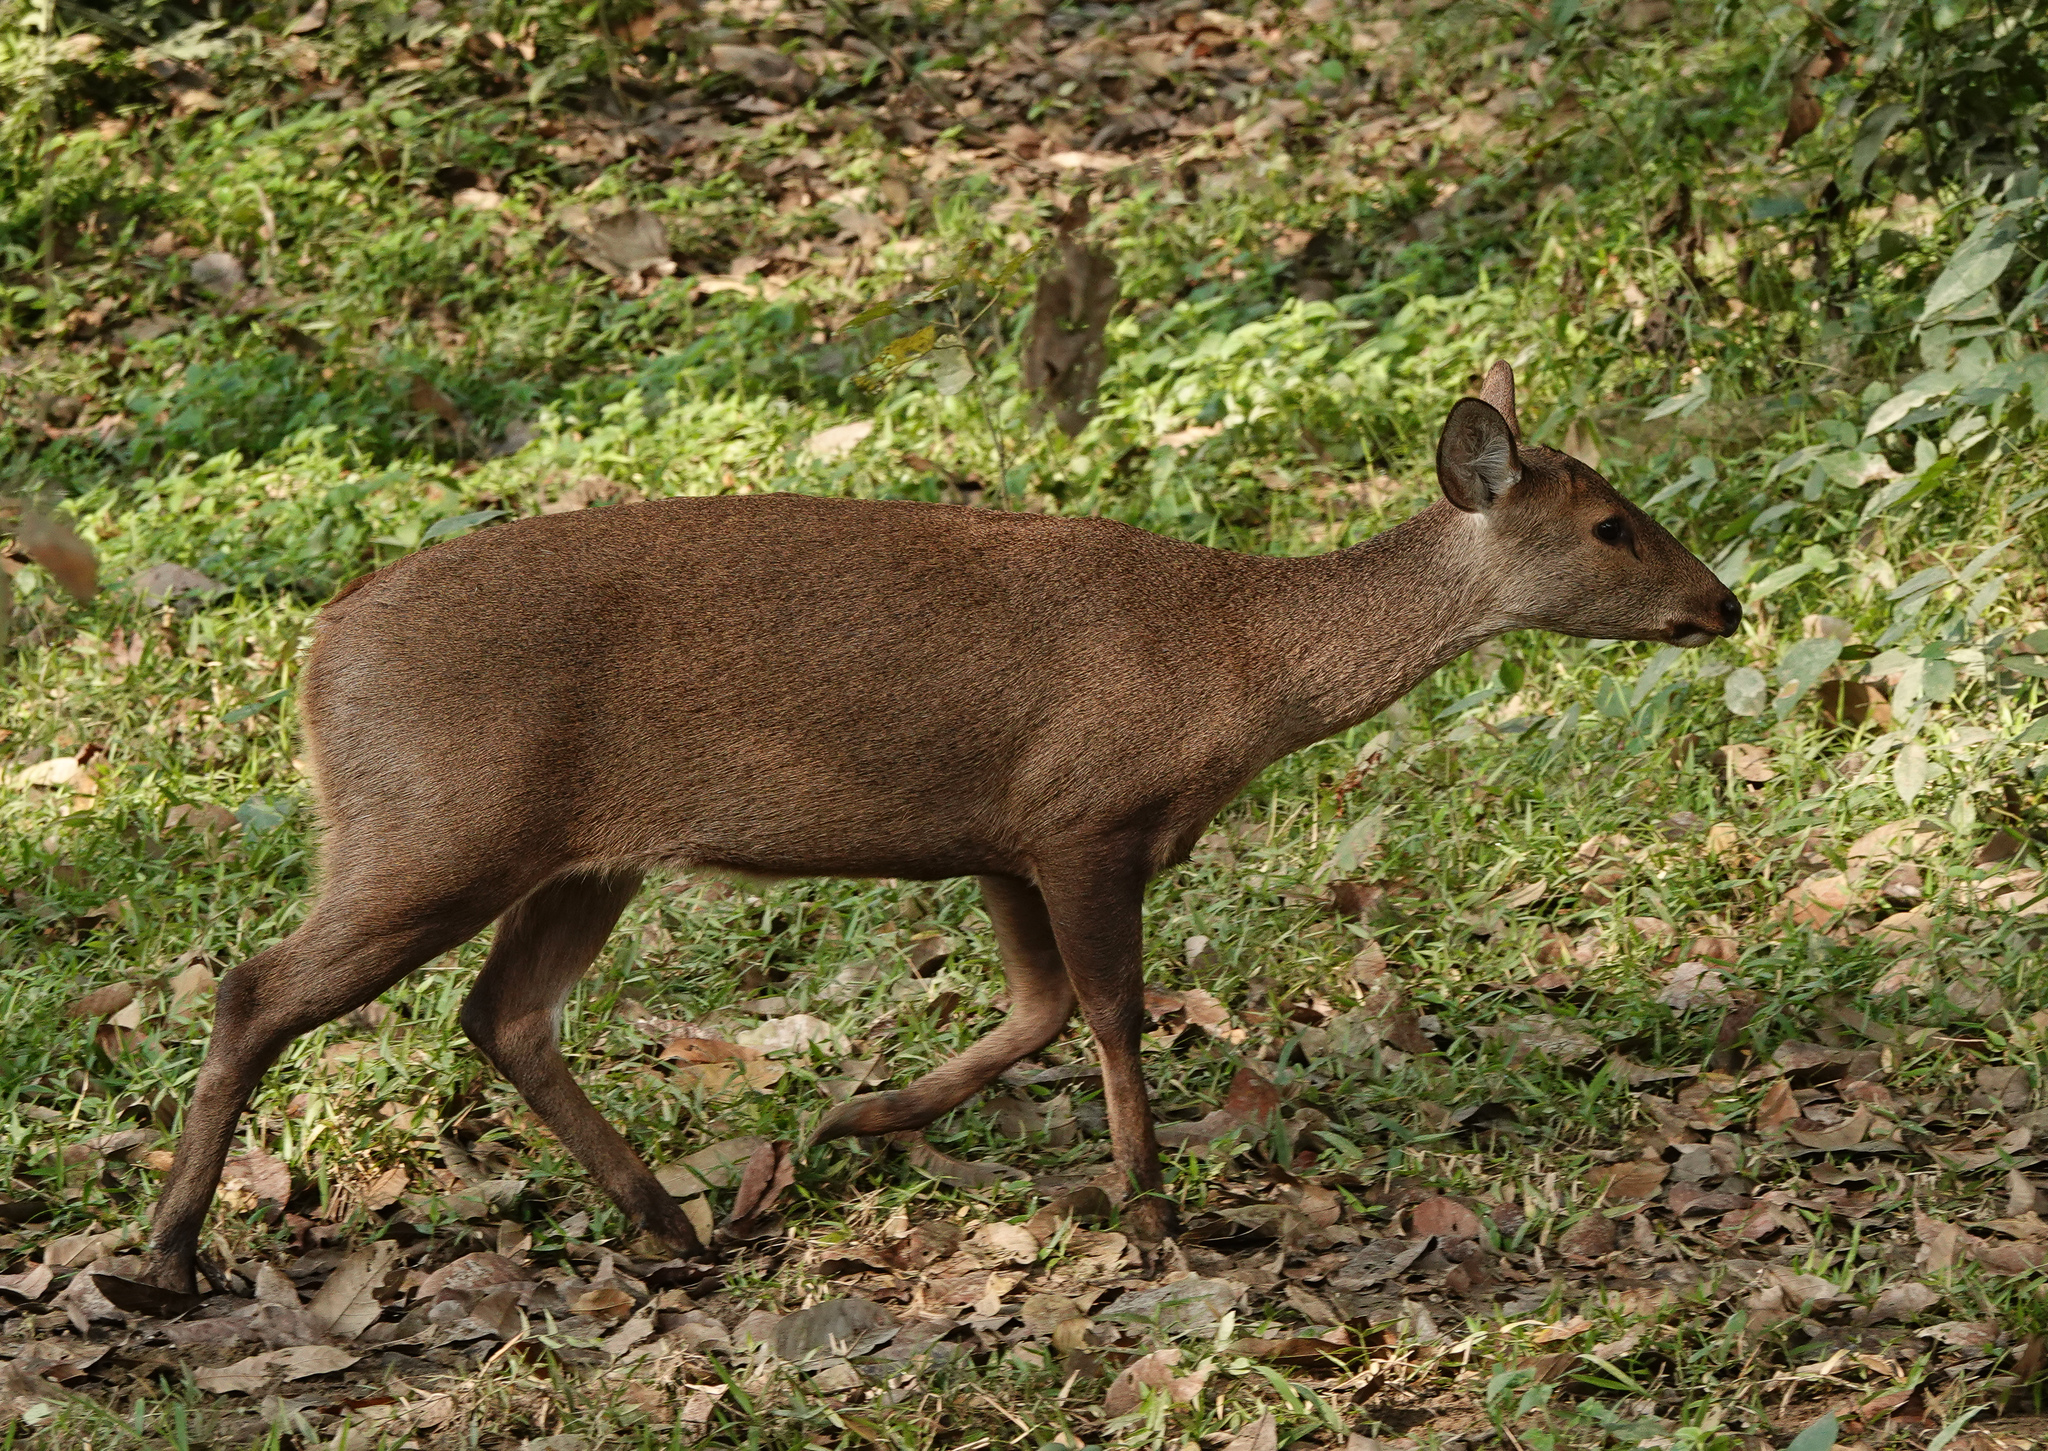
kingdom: Animalia
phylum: Chordata
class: Mammalia
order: Artiodactyla
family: Cervidae
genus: Axis
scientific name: Axis porcinus
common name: Hog deer
